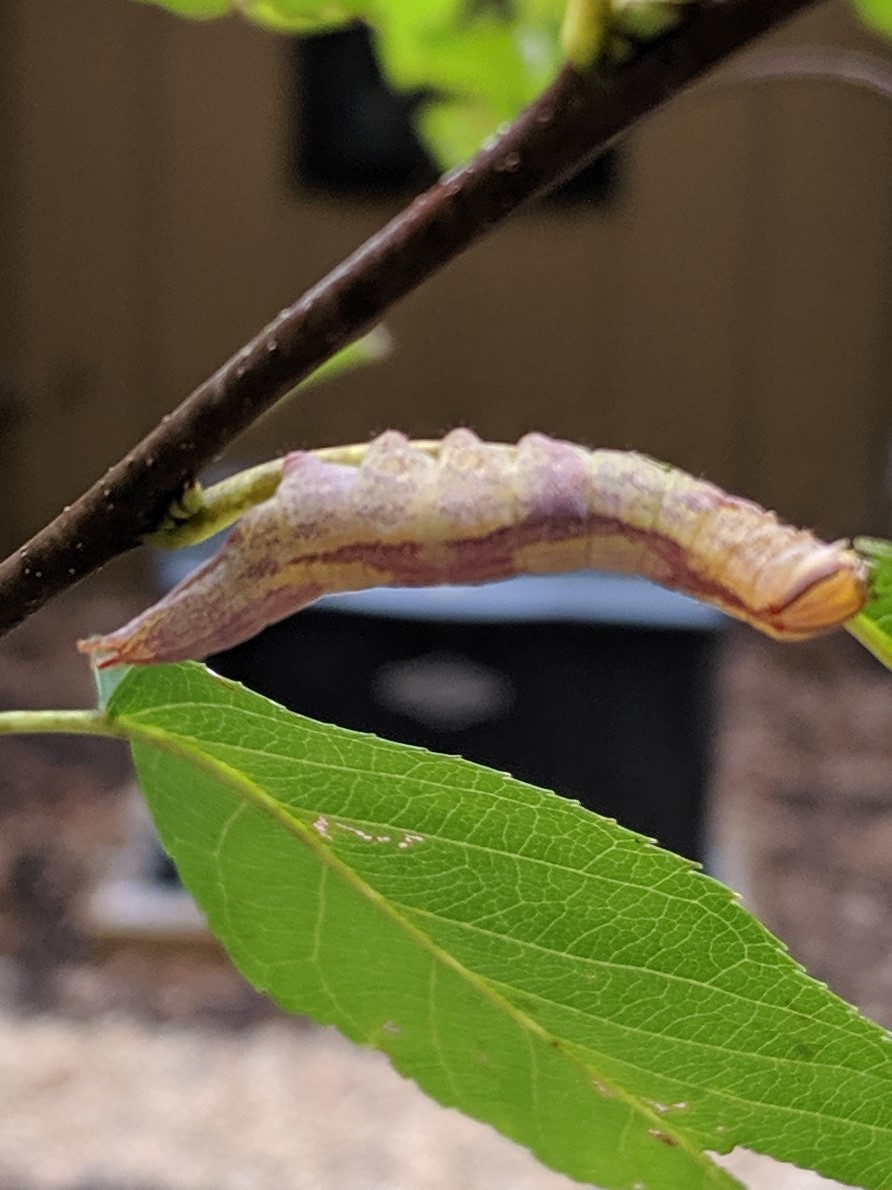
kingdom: Animalia
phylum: Arthropoda
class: Insecta
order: Lepidoptera
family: Notodontidae
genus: Disphragis
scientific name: Disphragis Cecrita guttivitta
